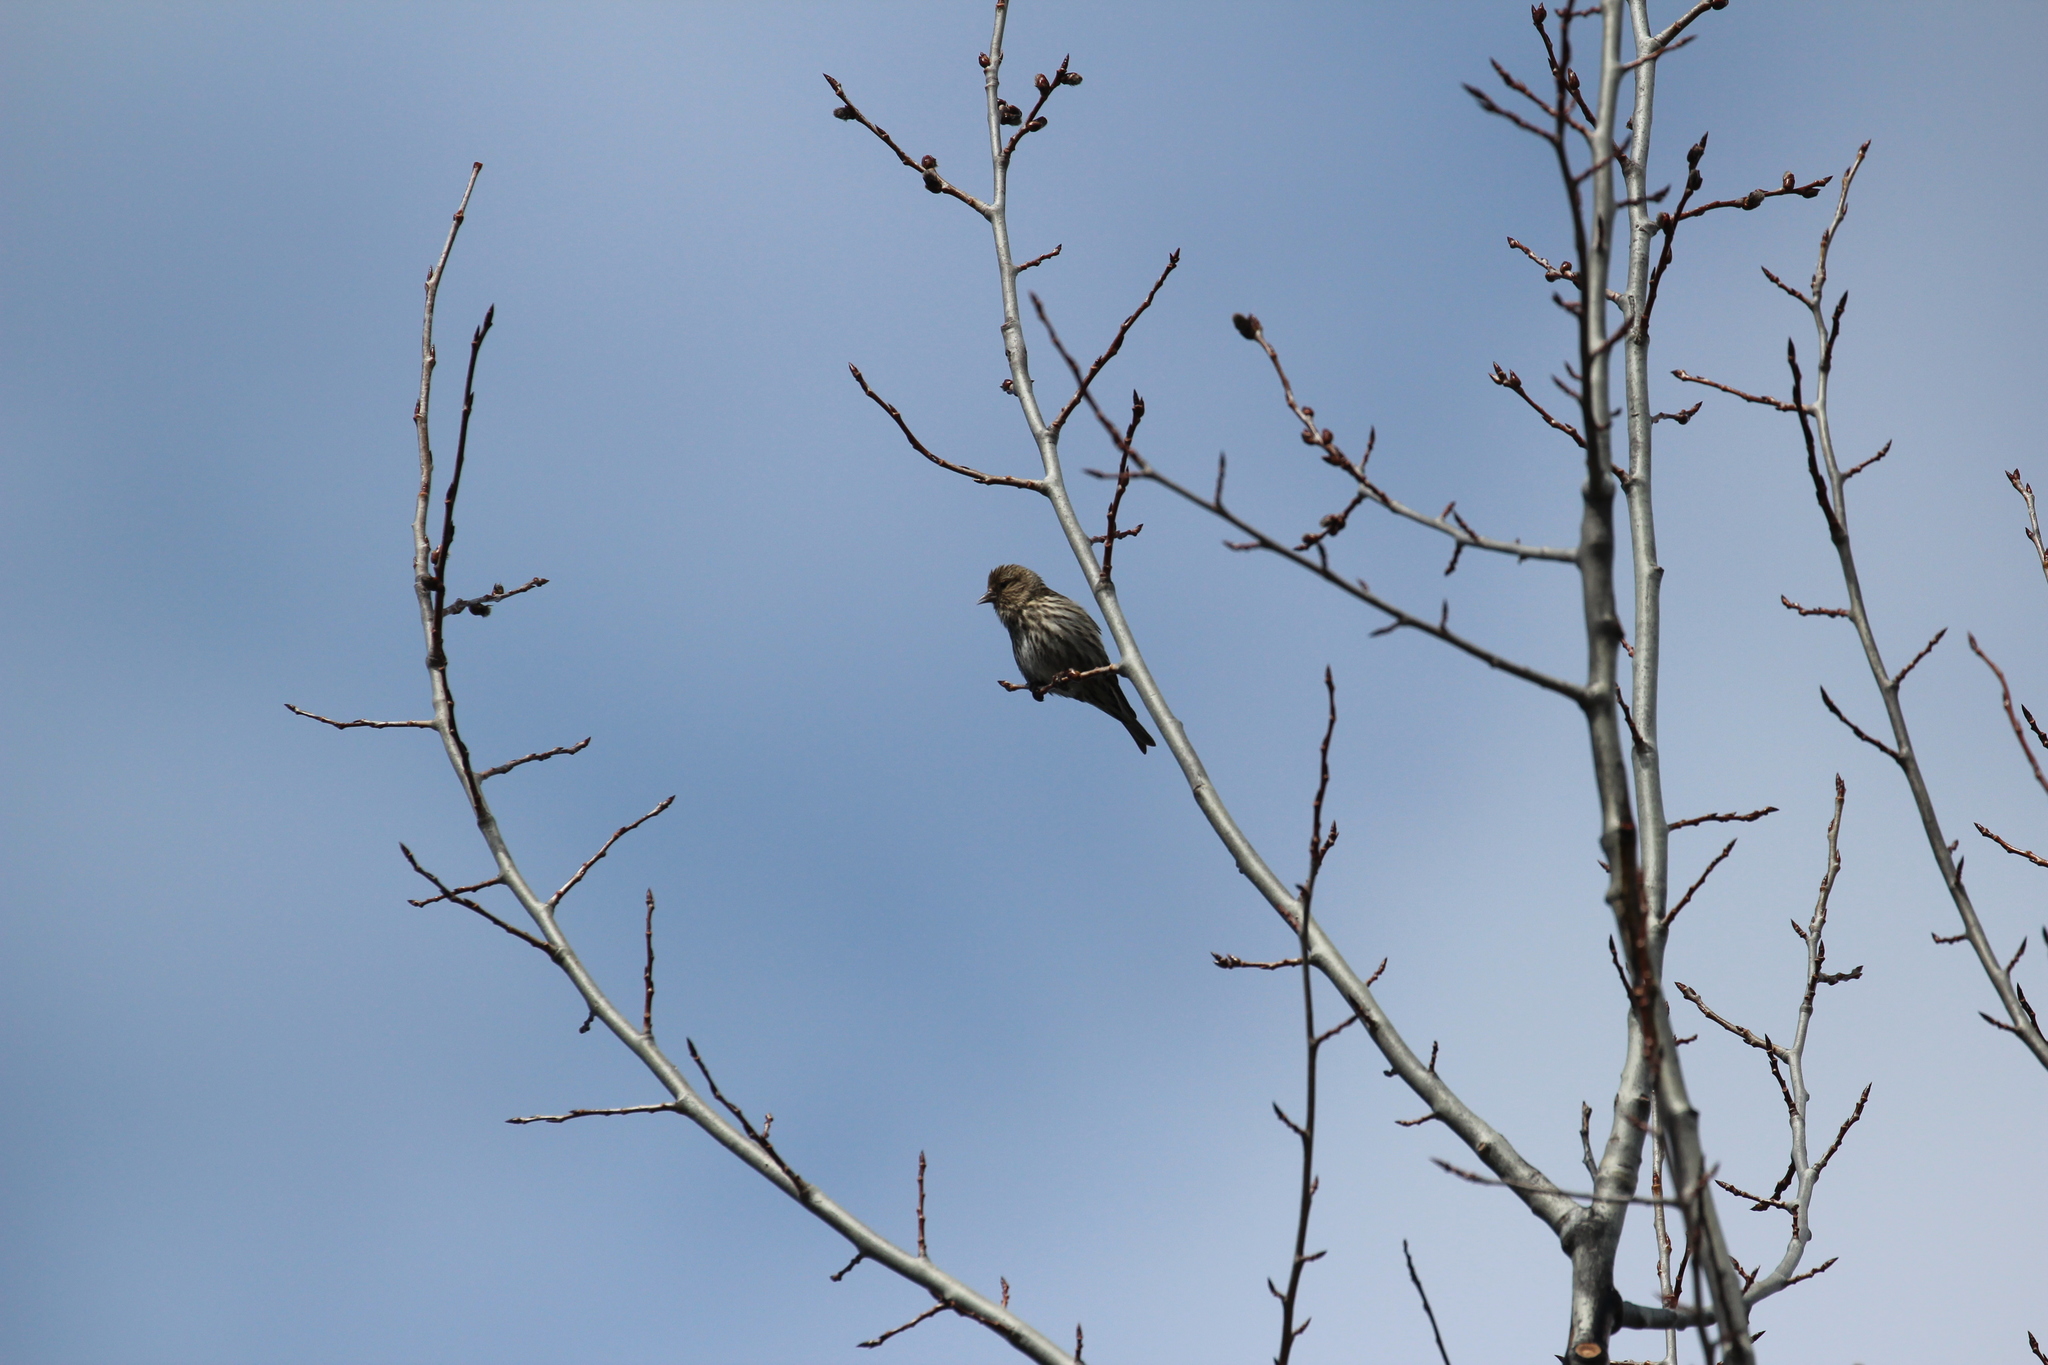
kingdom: Animalia
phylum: Chordata
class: Aves
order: Passeriformes
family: Fringillidae
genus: Spinus
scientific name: Spinus pinus
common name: Pine siskin
